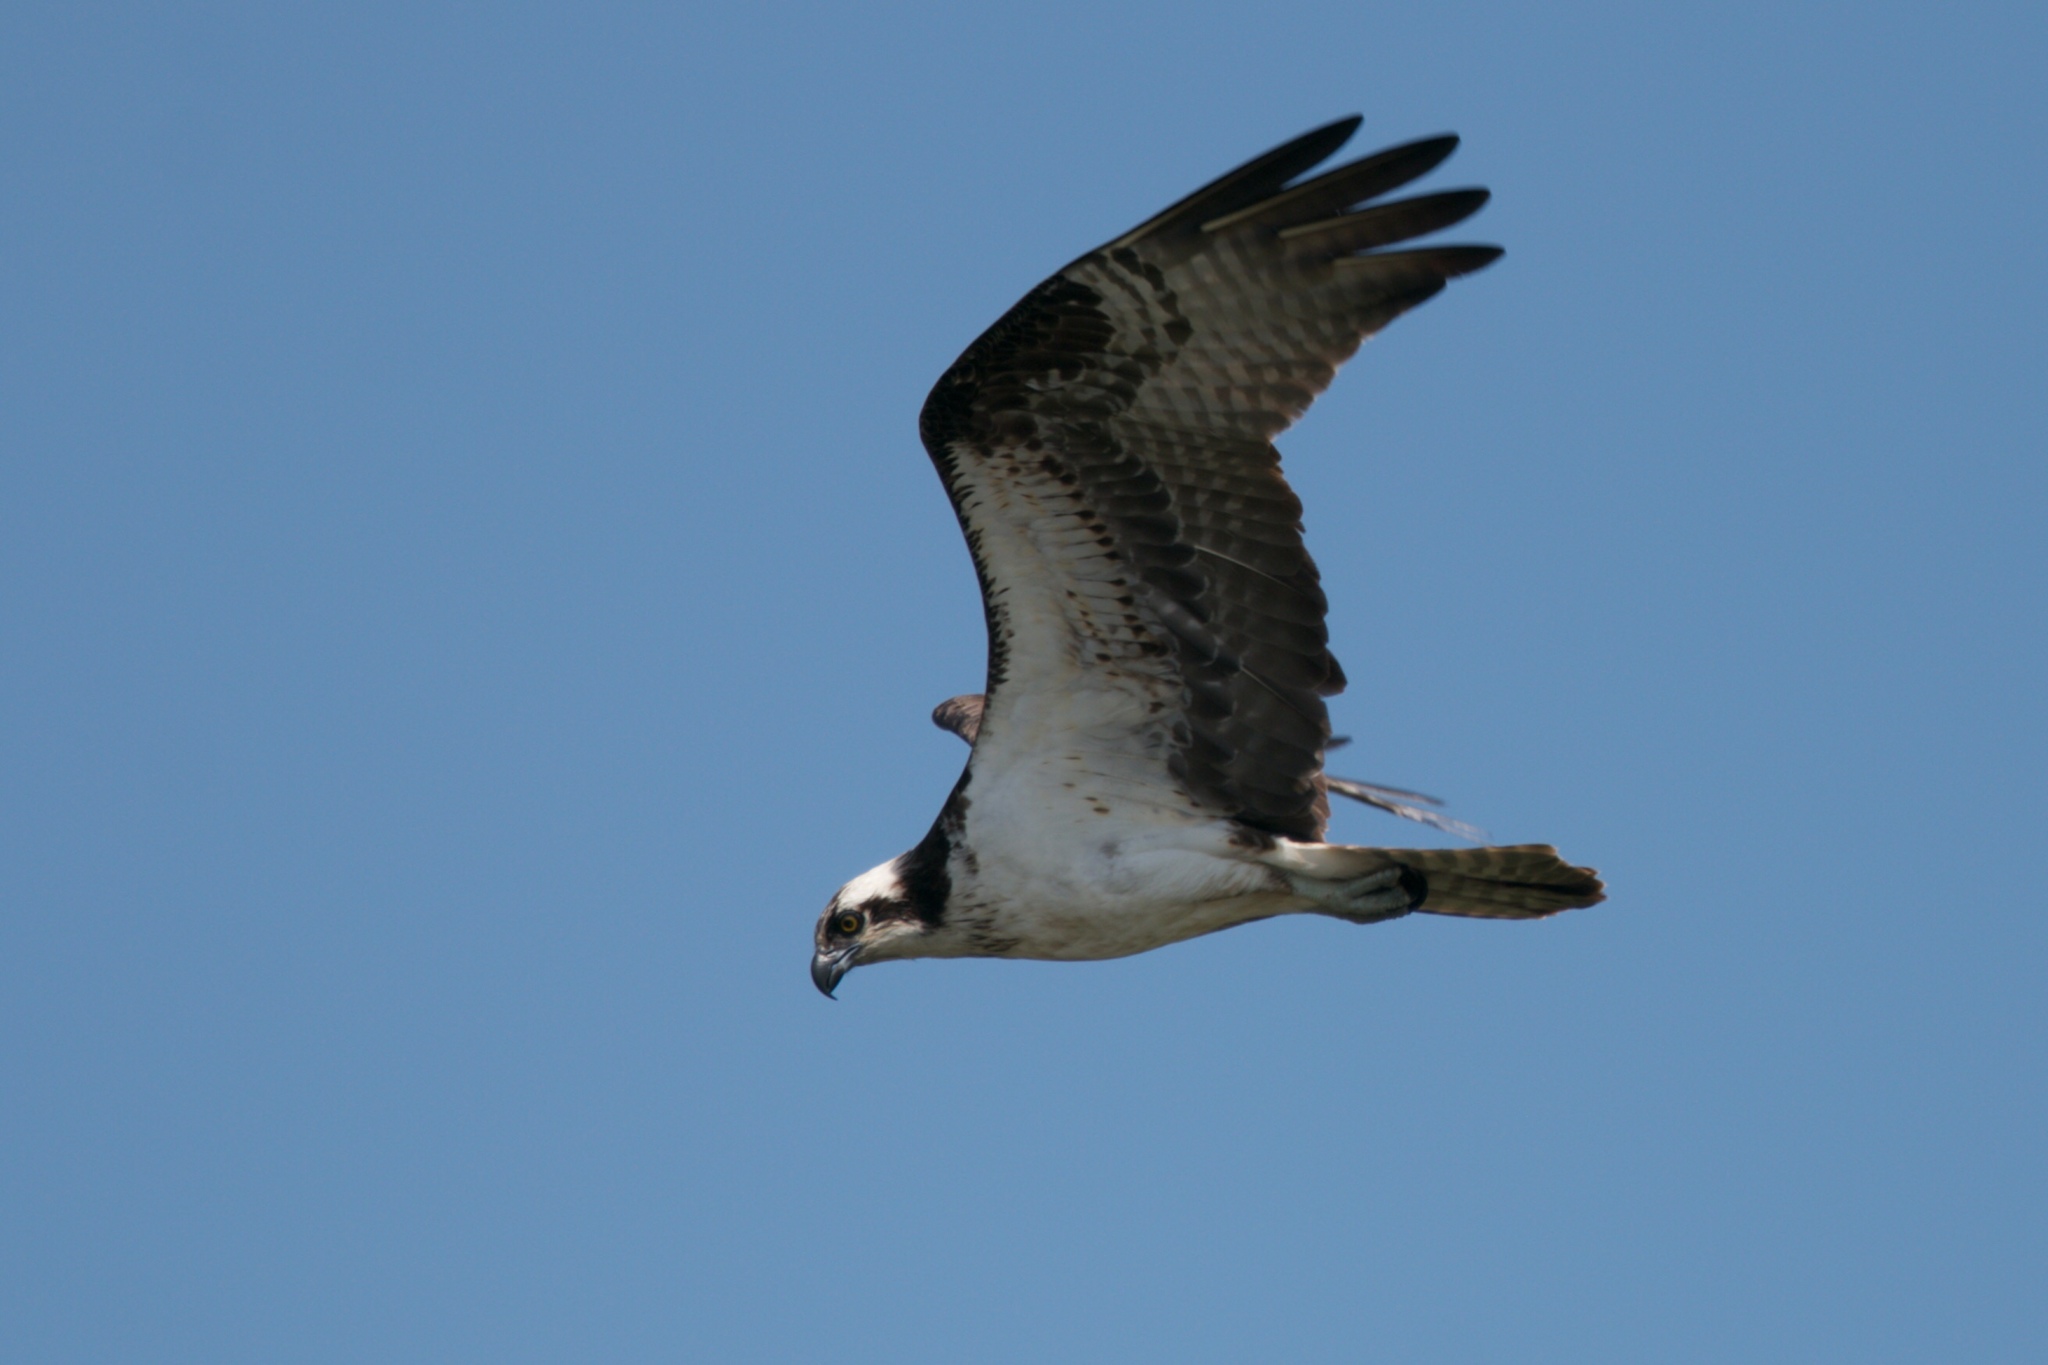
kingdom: Animalia
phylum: Chordata
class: Aves
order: Accipitriformes
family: Pandionidae
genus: Pandion
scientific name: Pandion haliaetus
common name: Osprey
